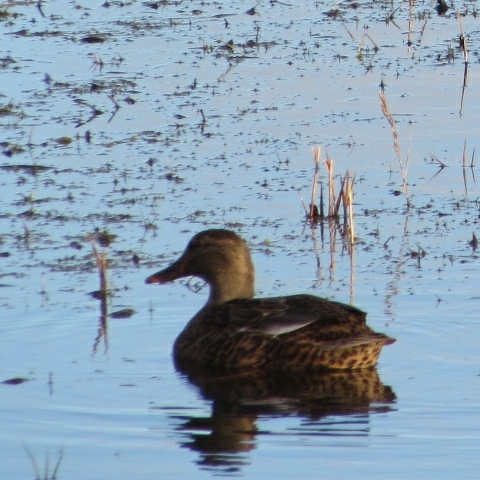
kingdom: Animalia
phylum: Chordata
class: Aves
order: Anseriformes
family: Anatidae
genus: Anas
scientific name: Anas platyrhynchos
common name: Mallard
